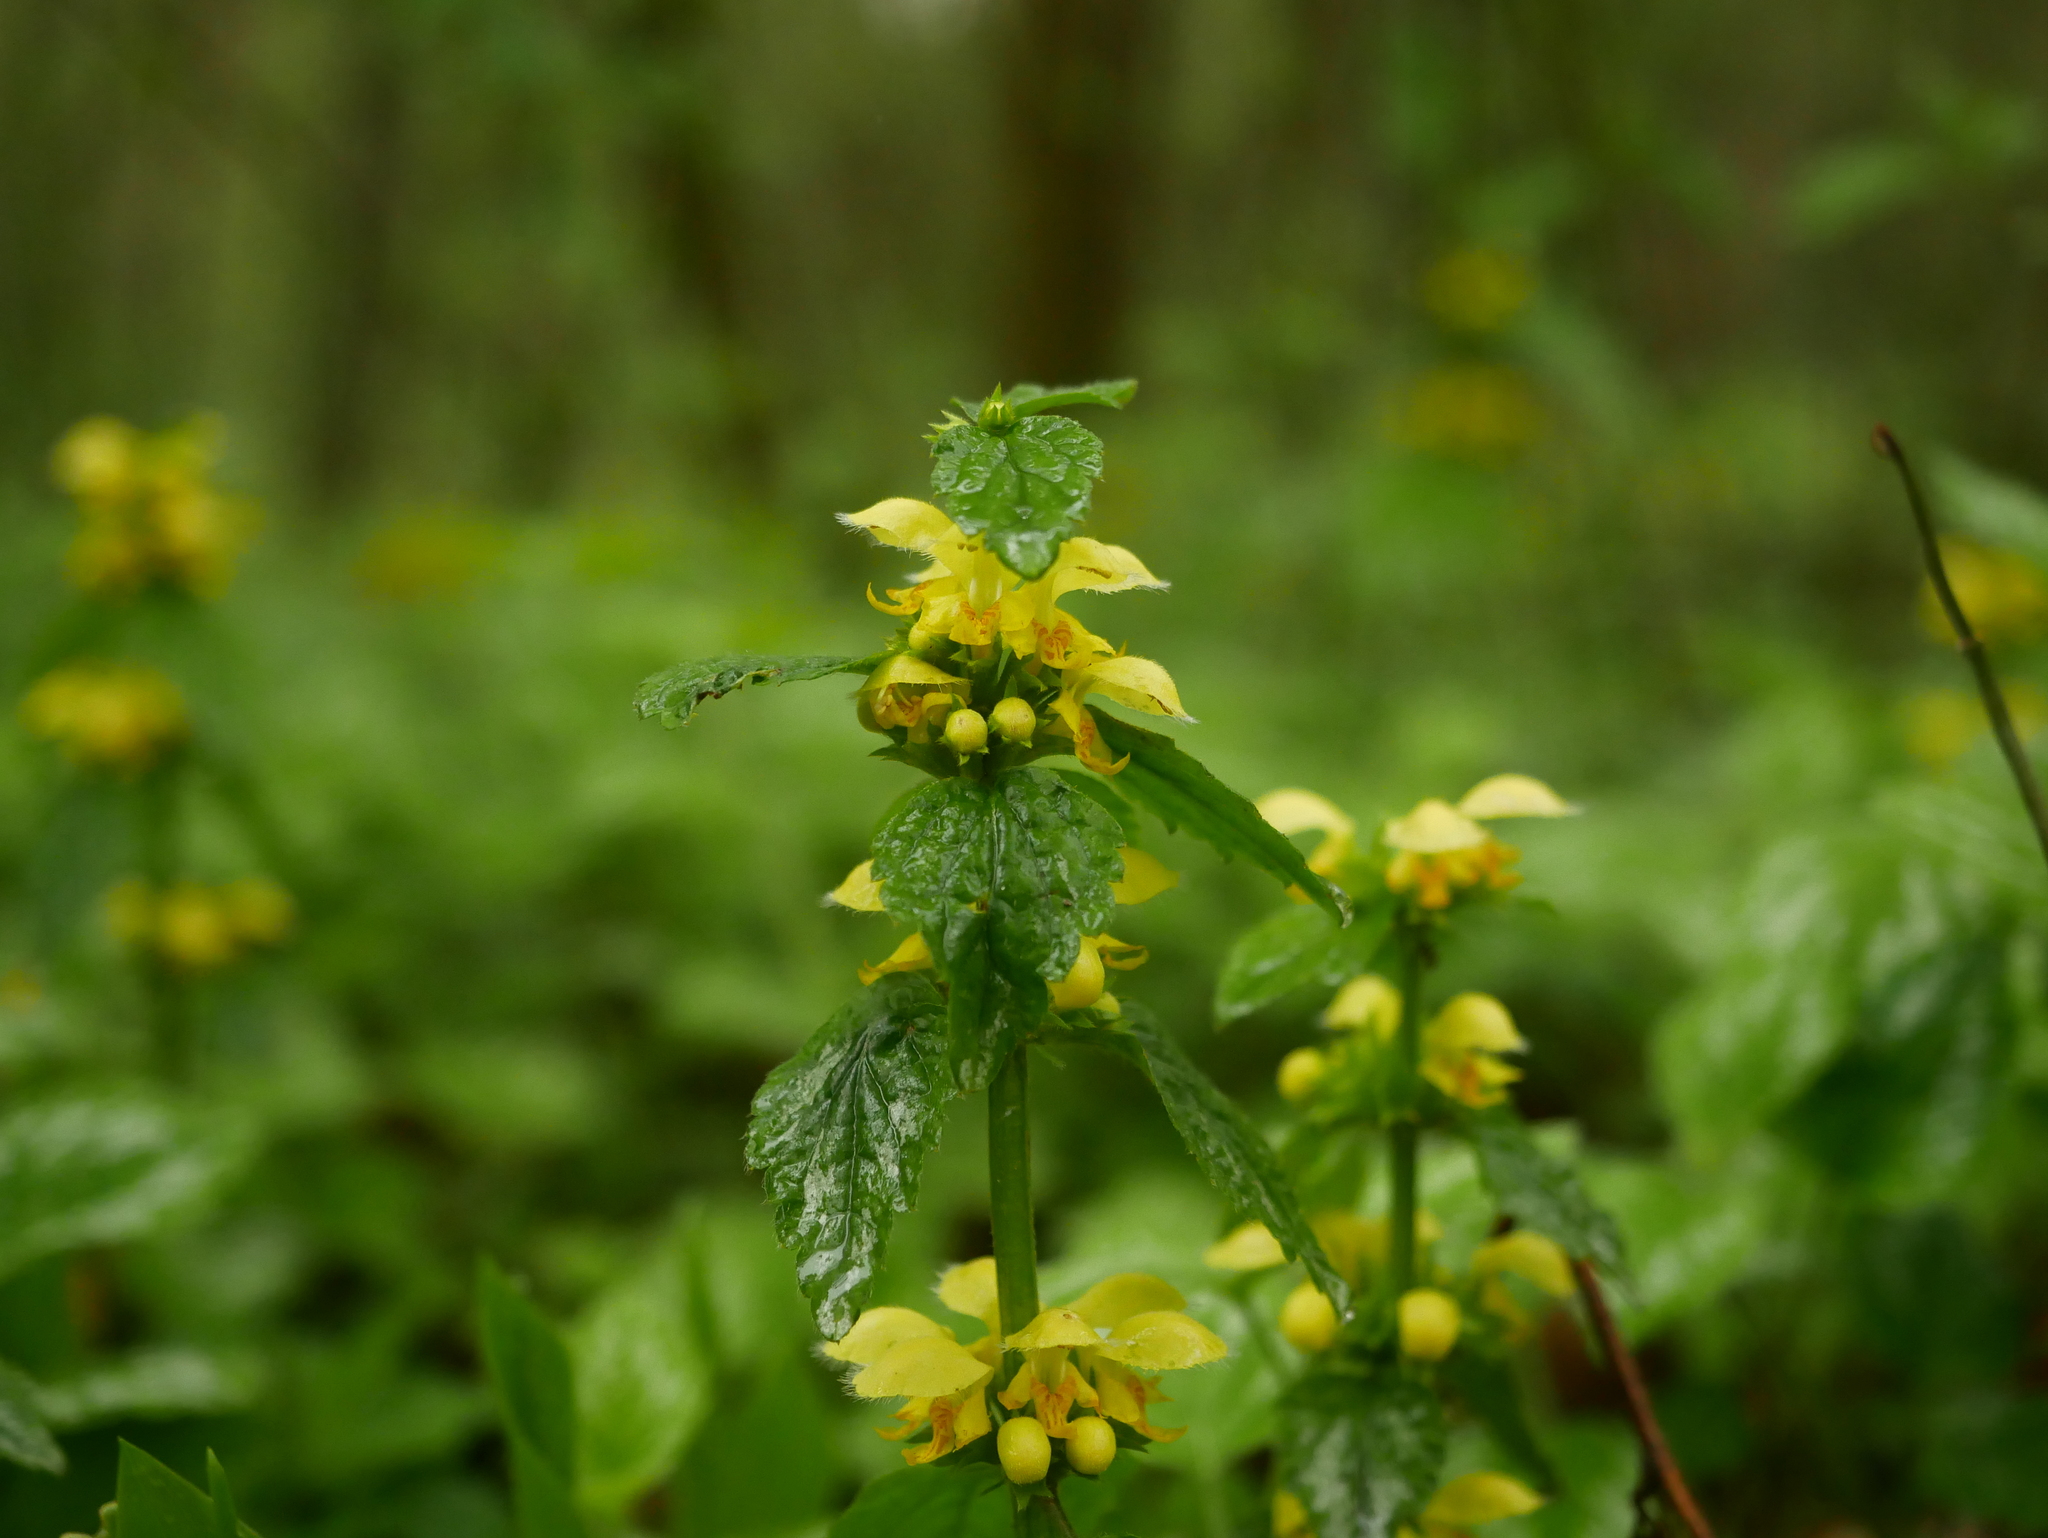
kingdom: Plantae
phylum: Tracheophyta
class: Magnoliopsida
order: Lamiales
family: Lamiaceae
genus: Lamium
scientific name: Lamium galeobdolon
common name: Yellow archangel
